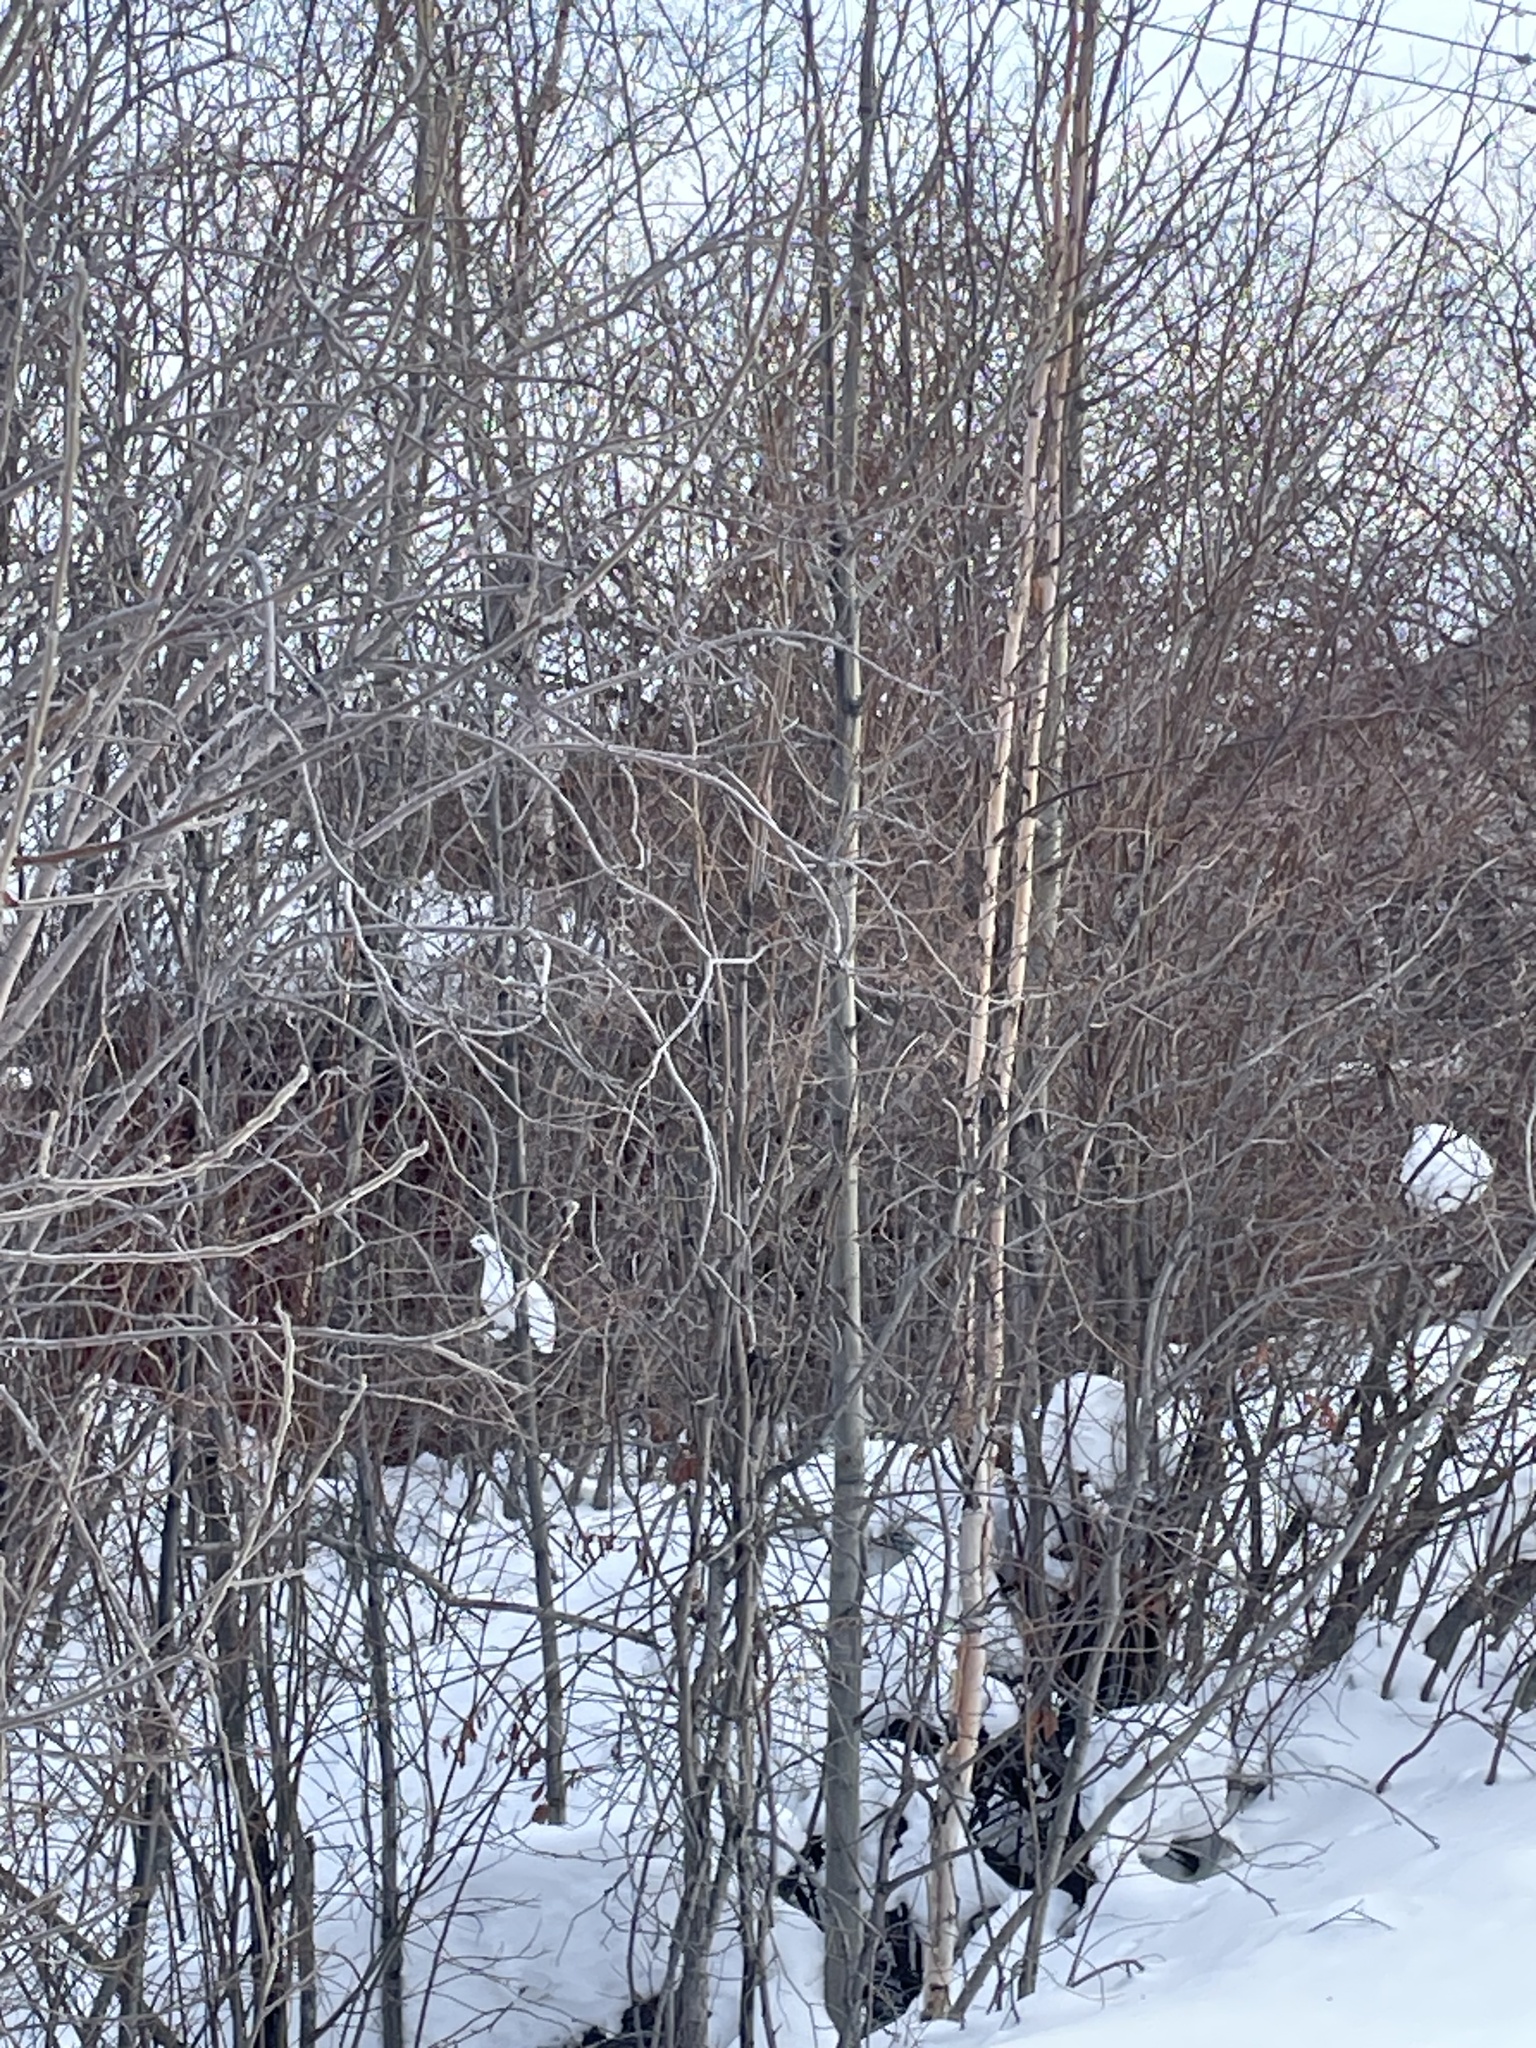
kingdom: Animalia
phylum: Chordata
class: Aves
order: Galliformes
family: Phasianidae
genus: Lagopus
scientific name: Lagopus lagopus
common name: Willow ptarmigan
